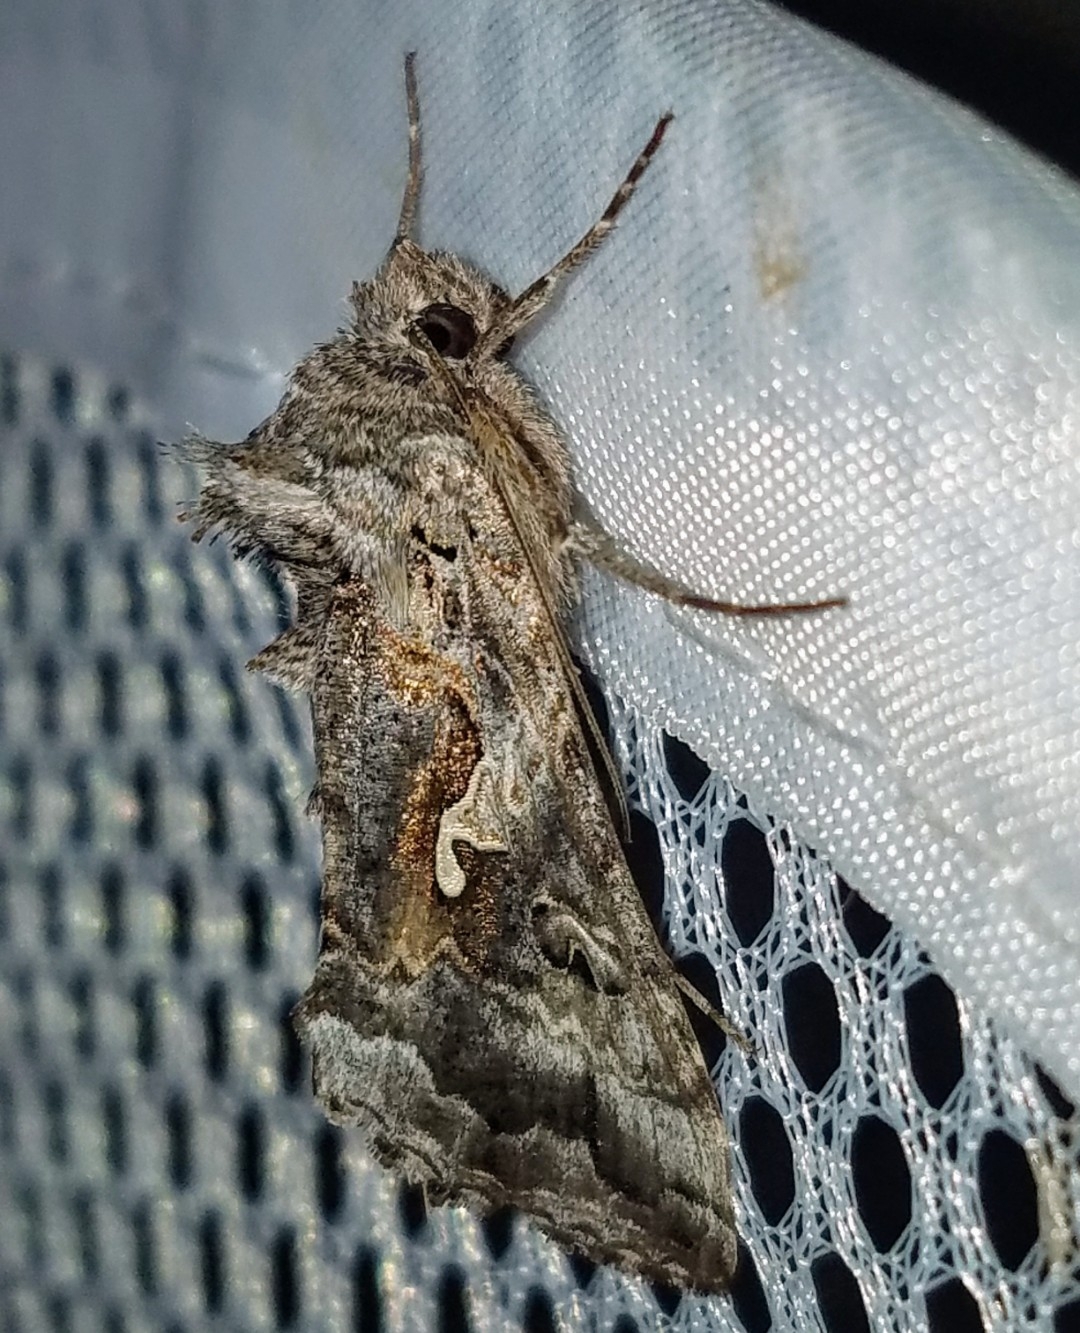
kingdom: Animalia
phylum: Arthropoda
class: Insecta
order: Lepidoptera
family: Noctuidae
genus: Autographa
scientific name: Autographa californica
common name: Alfalfa looper
